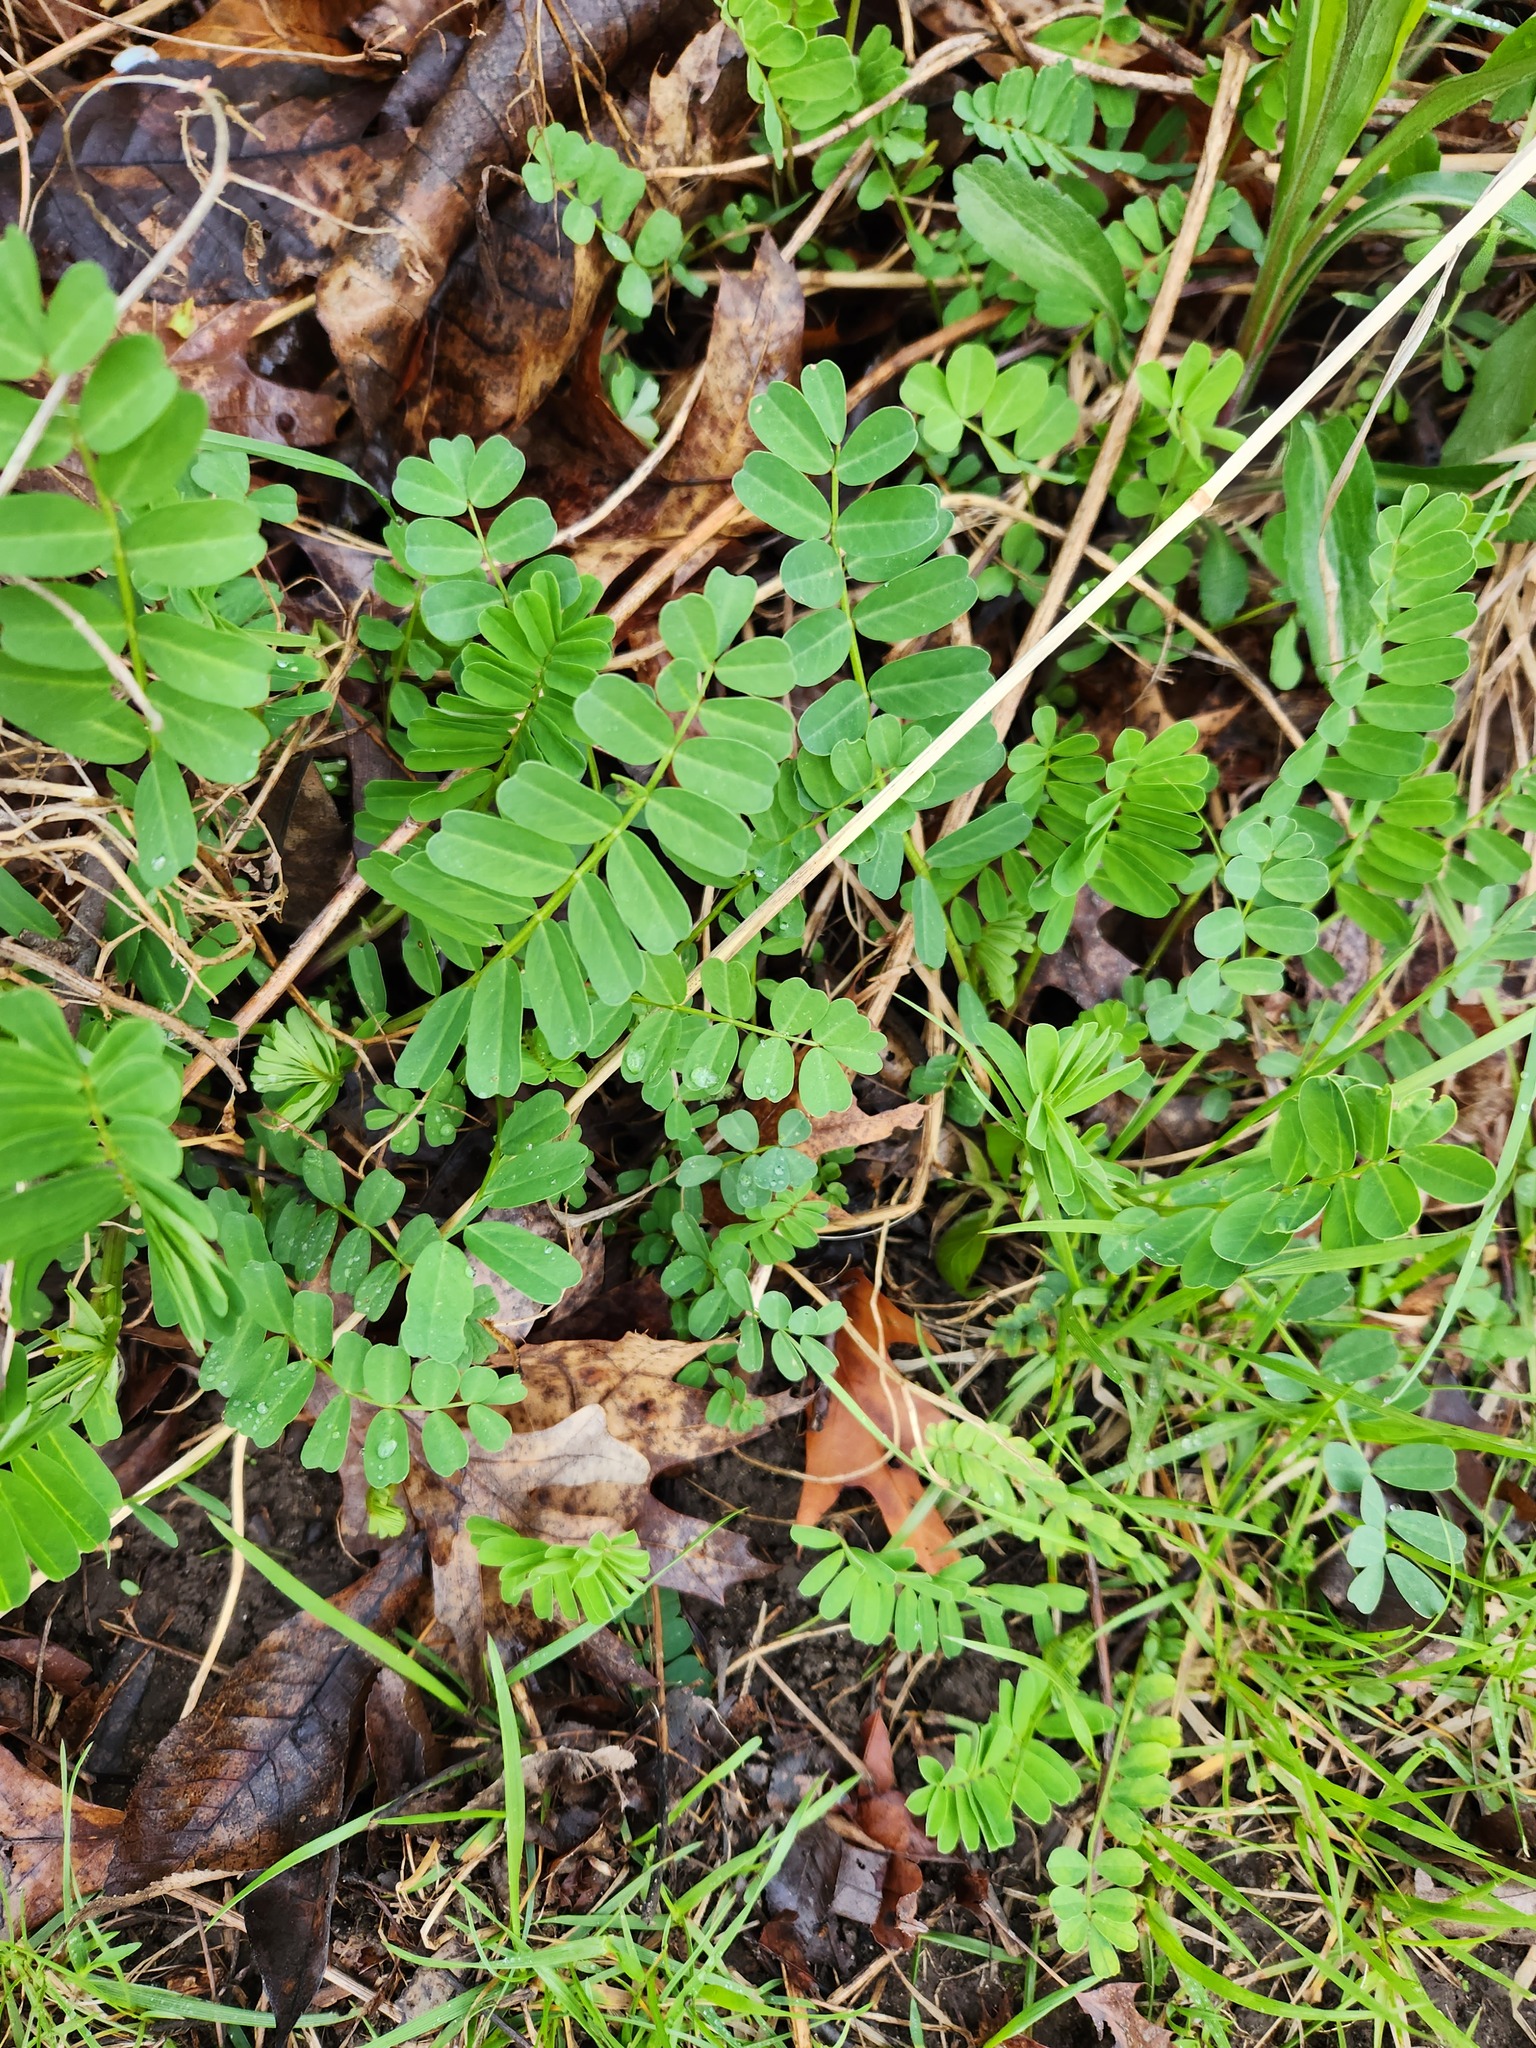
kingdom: Plantae
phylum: Tracheophyta
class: Magnoliopsida
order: Fabales
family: Fabaceae
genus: Coronilla
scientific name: Coronilla varia
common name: Crownvetch
